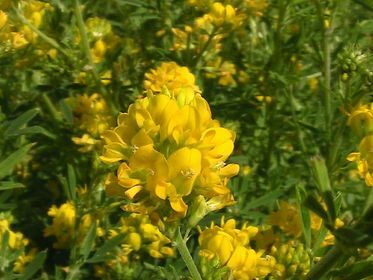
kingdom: Plantae
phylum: Tracheophyta
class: Magnoliopsida
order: Fabales
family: Fabaceae
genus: Medicago
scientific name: Medicago falcata
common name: Sickle medick
